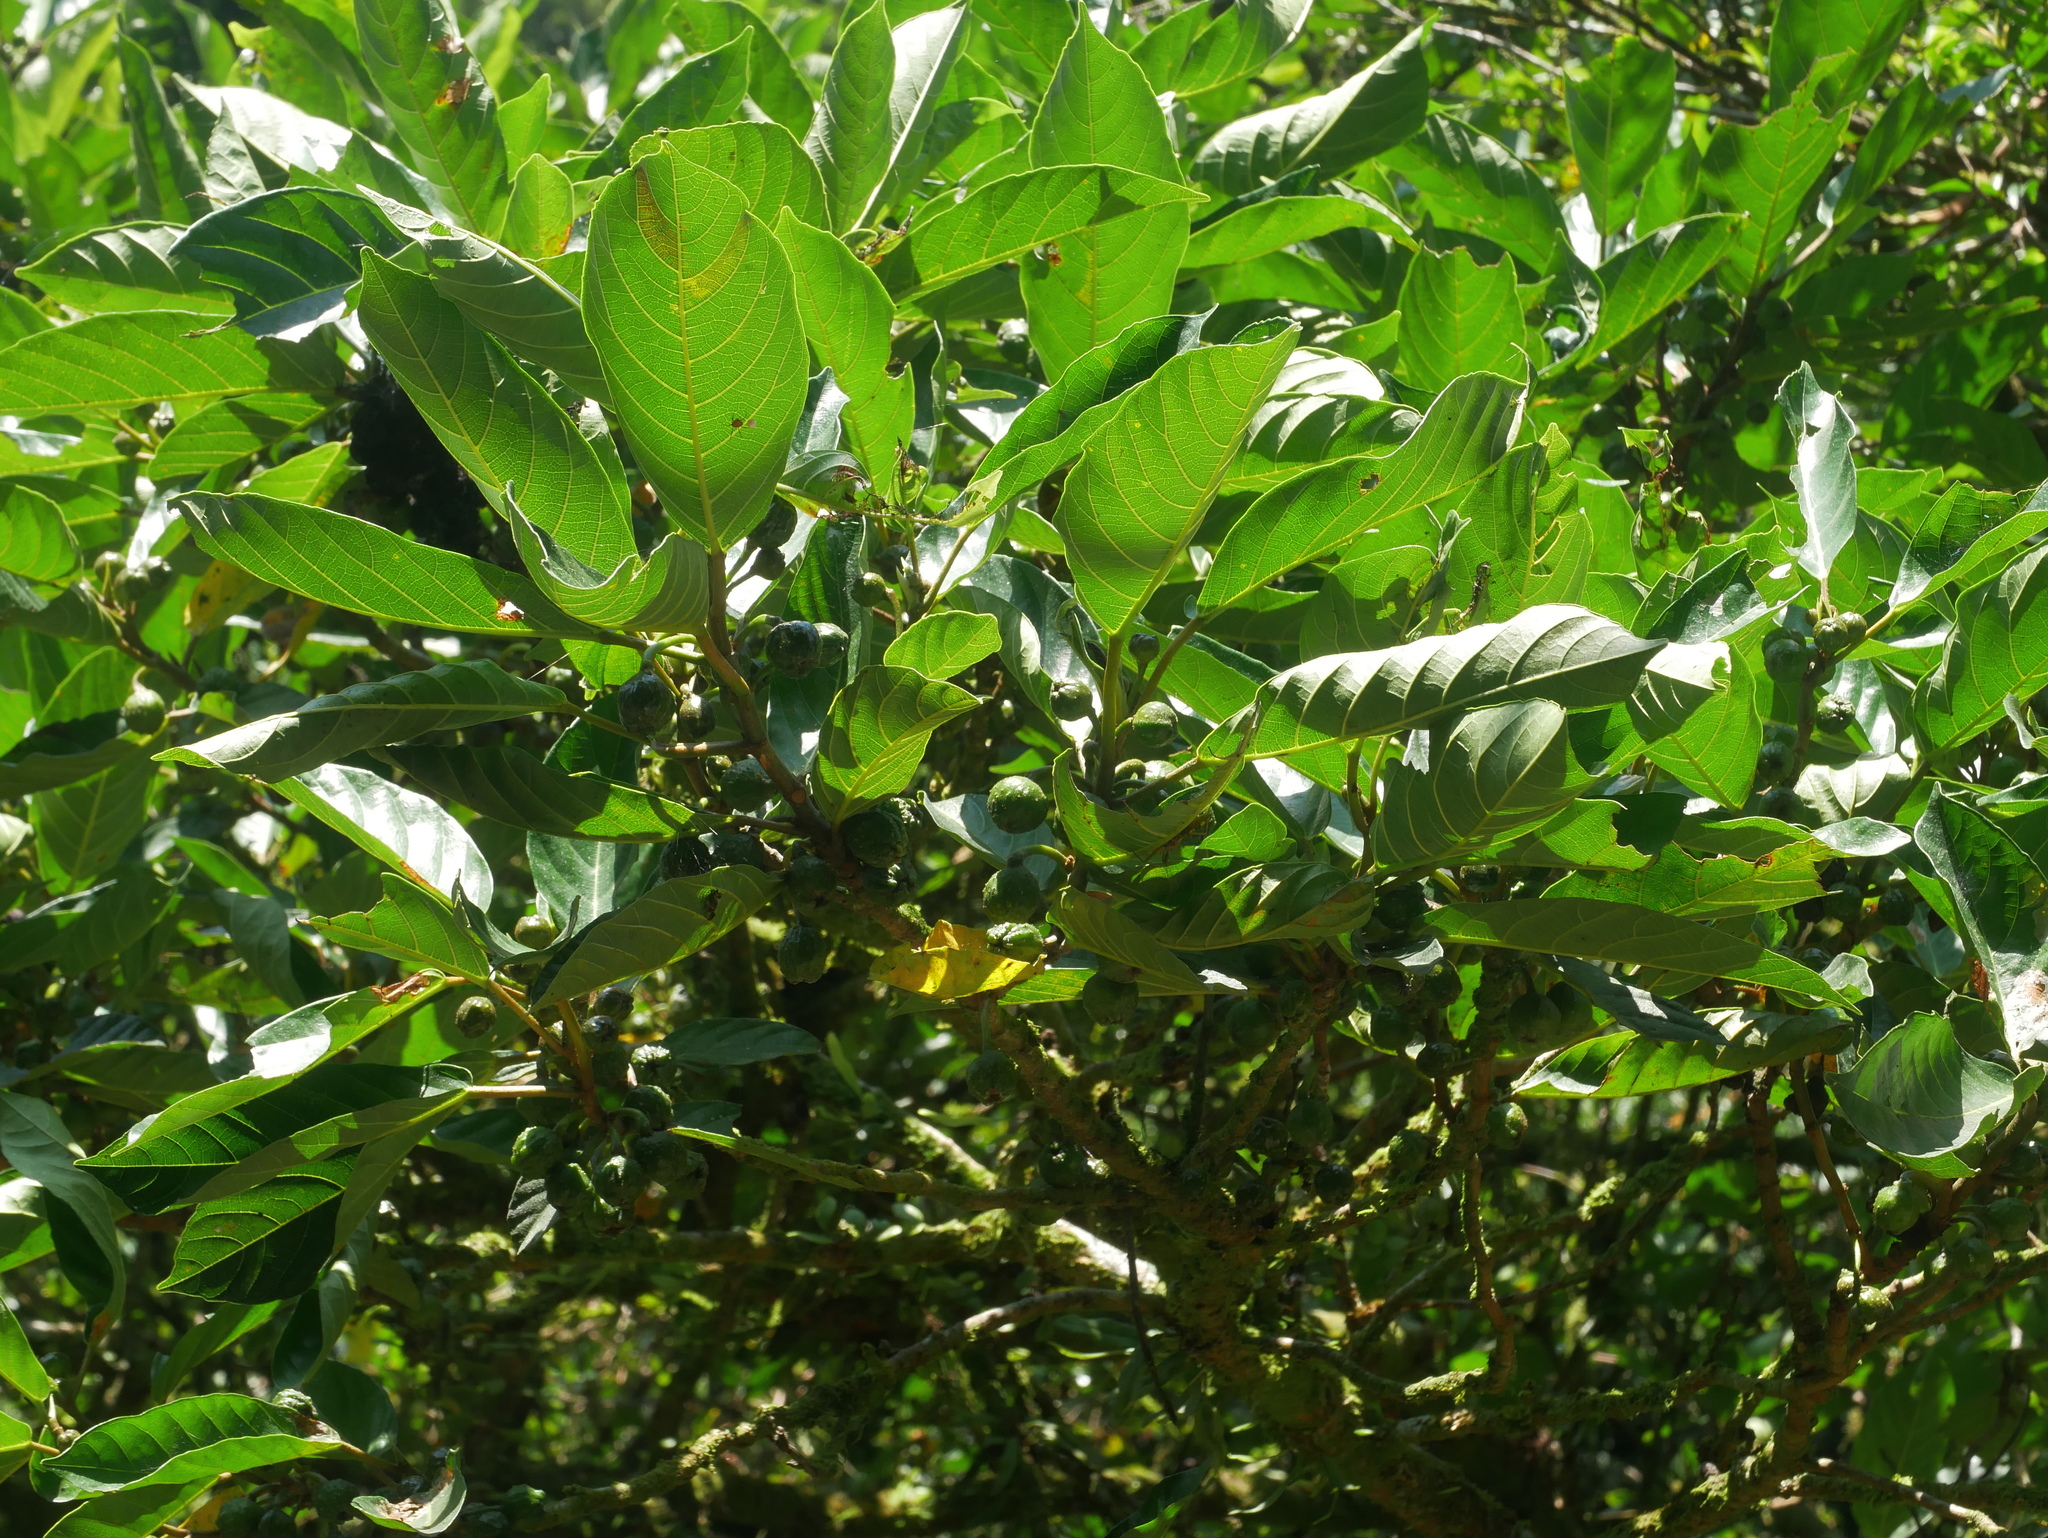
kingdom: Plantae
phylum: Tracheophyta
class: Magnoliopsida
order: Rosales
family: Moraceae
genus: Ficus
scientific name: Ficus septica
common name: Septic fig
